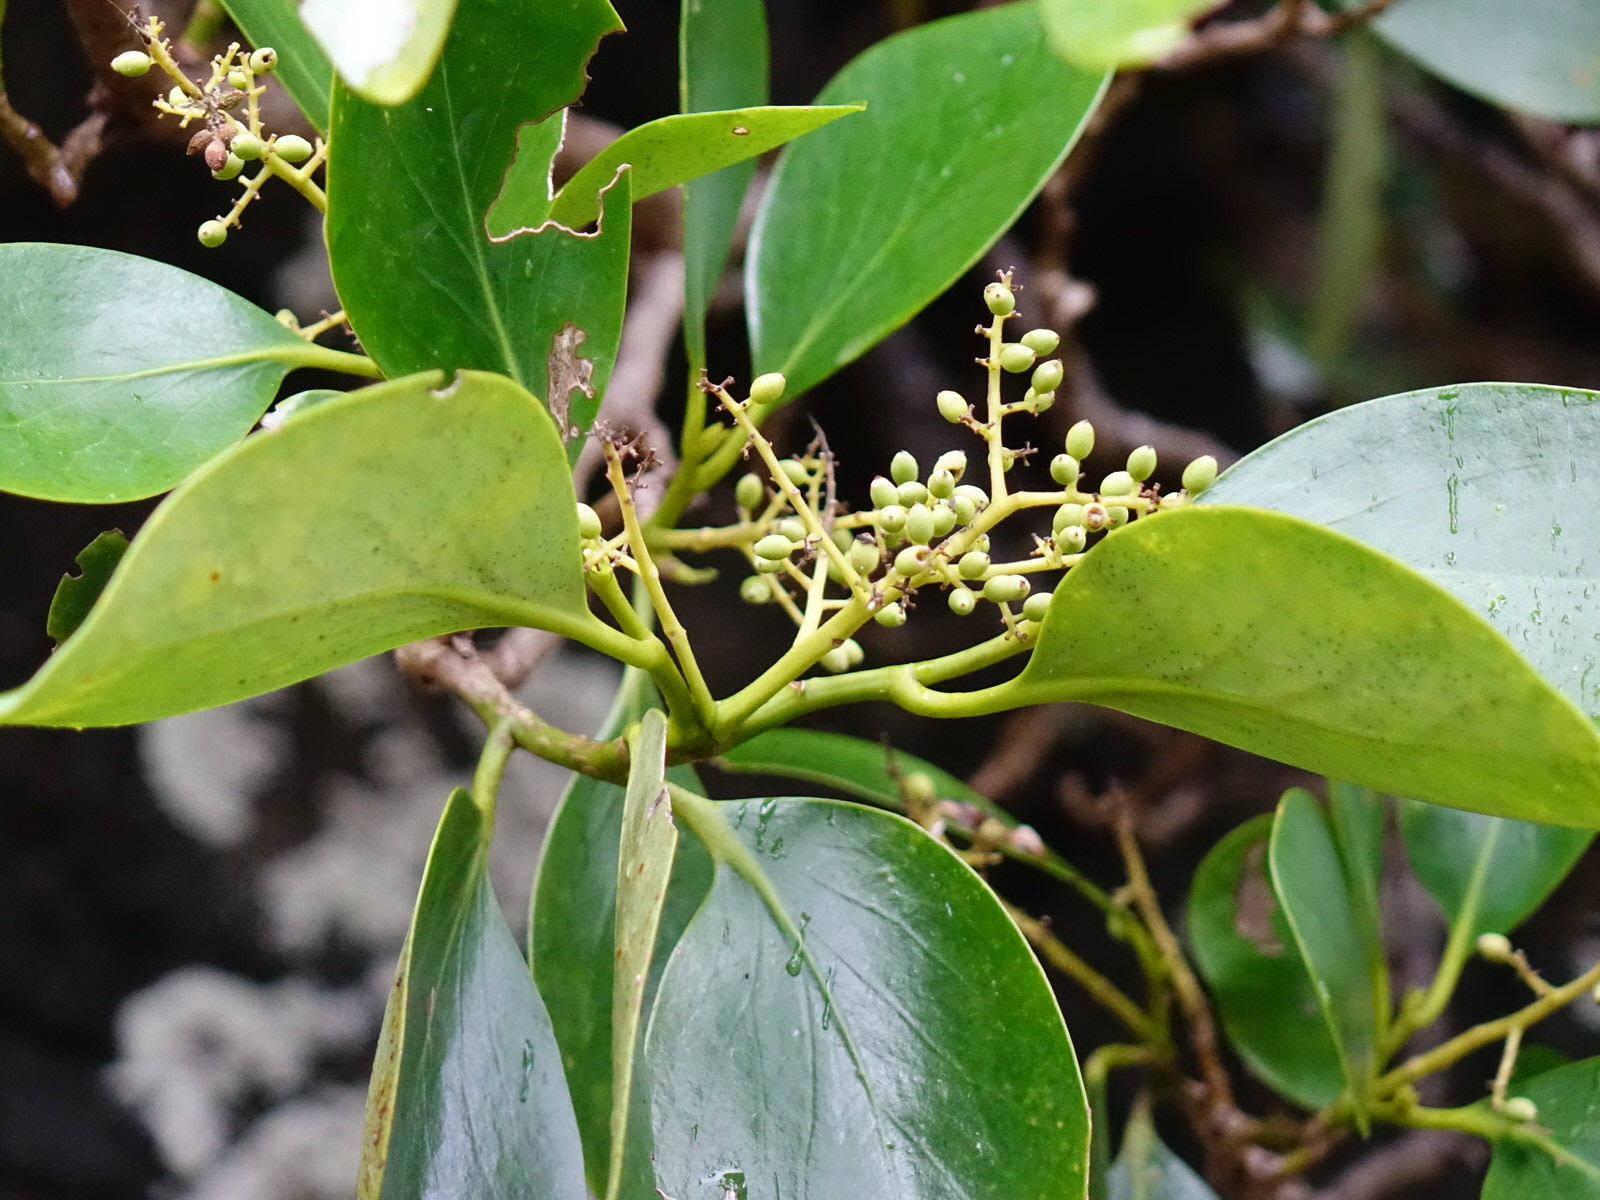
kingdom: Plantae
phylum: Tracheophyta
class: Magnoliopsida
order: Apiales
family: Griseliniaceae
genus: Griselinia
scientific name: Griselinia lucida
